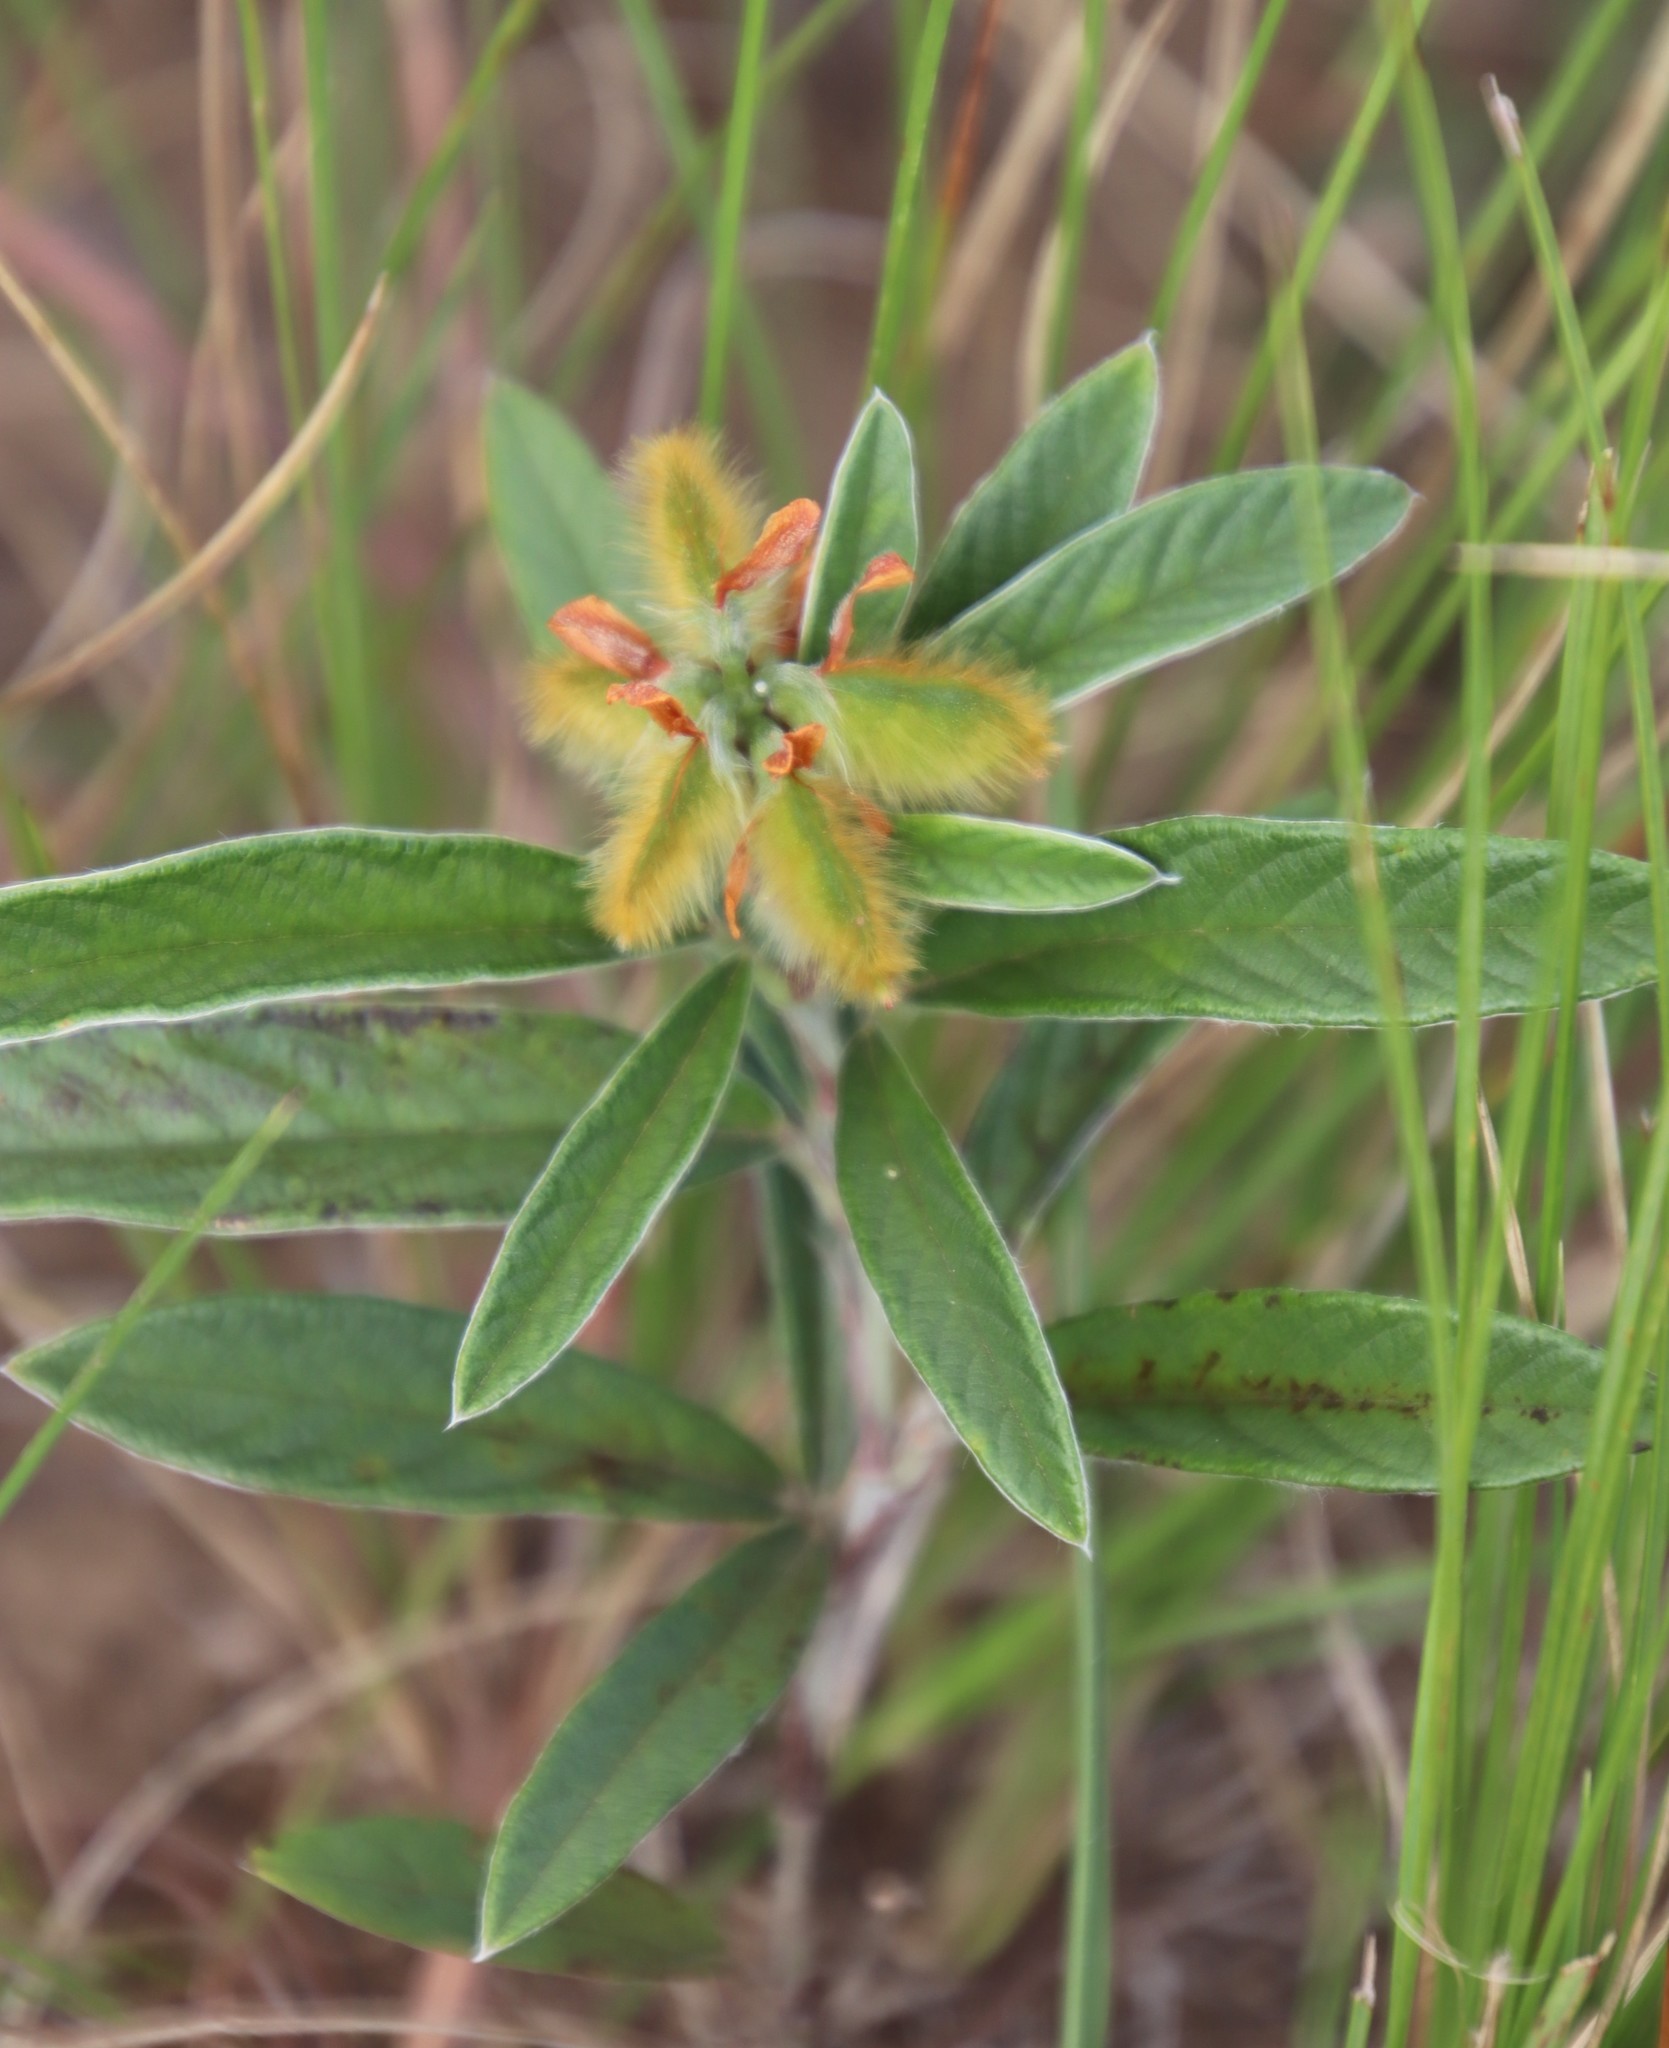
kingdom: Plantae
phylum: Tracheophyta
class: Magnoliopsida
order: Fabales
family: Fabaceae
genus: Eriosema
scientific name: Eriosema salignum
